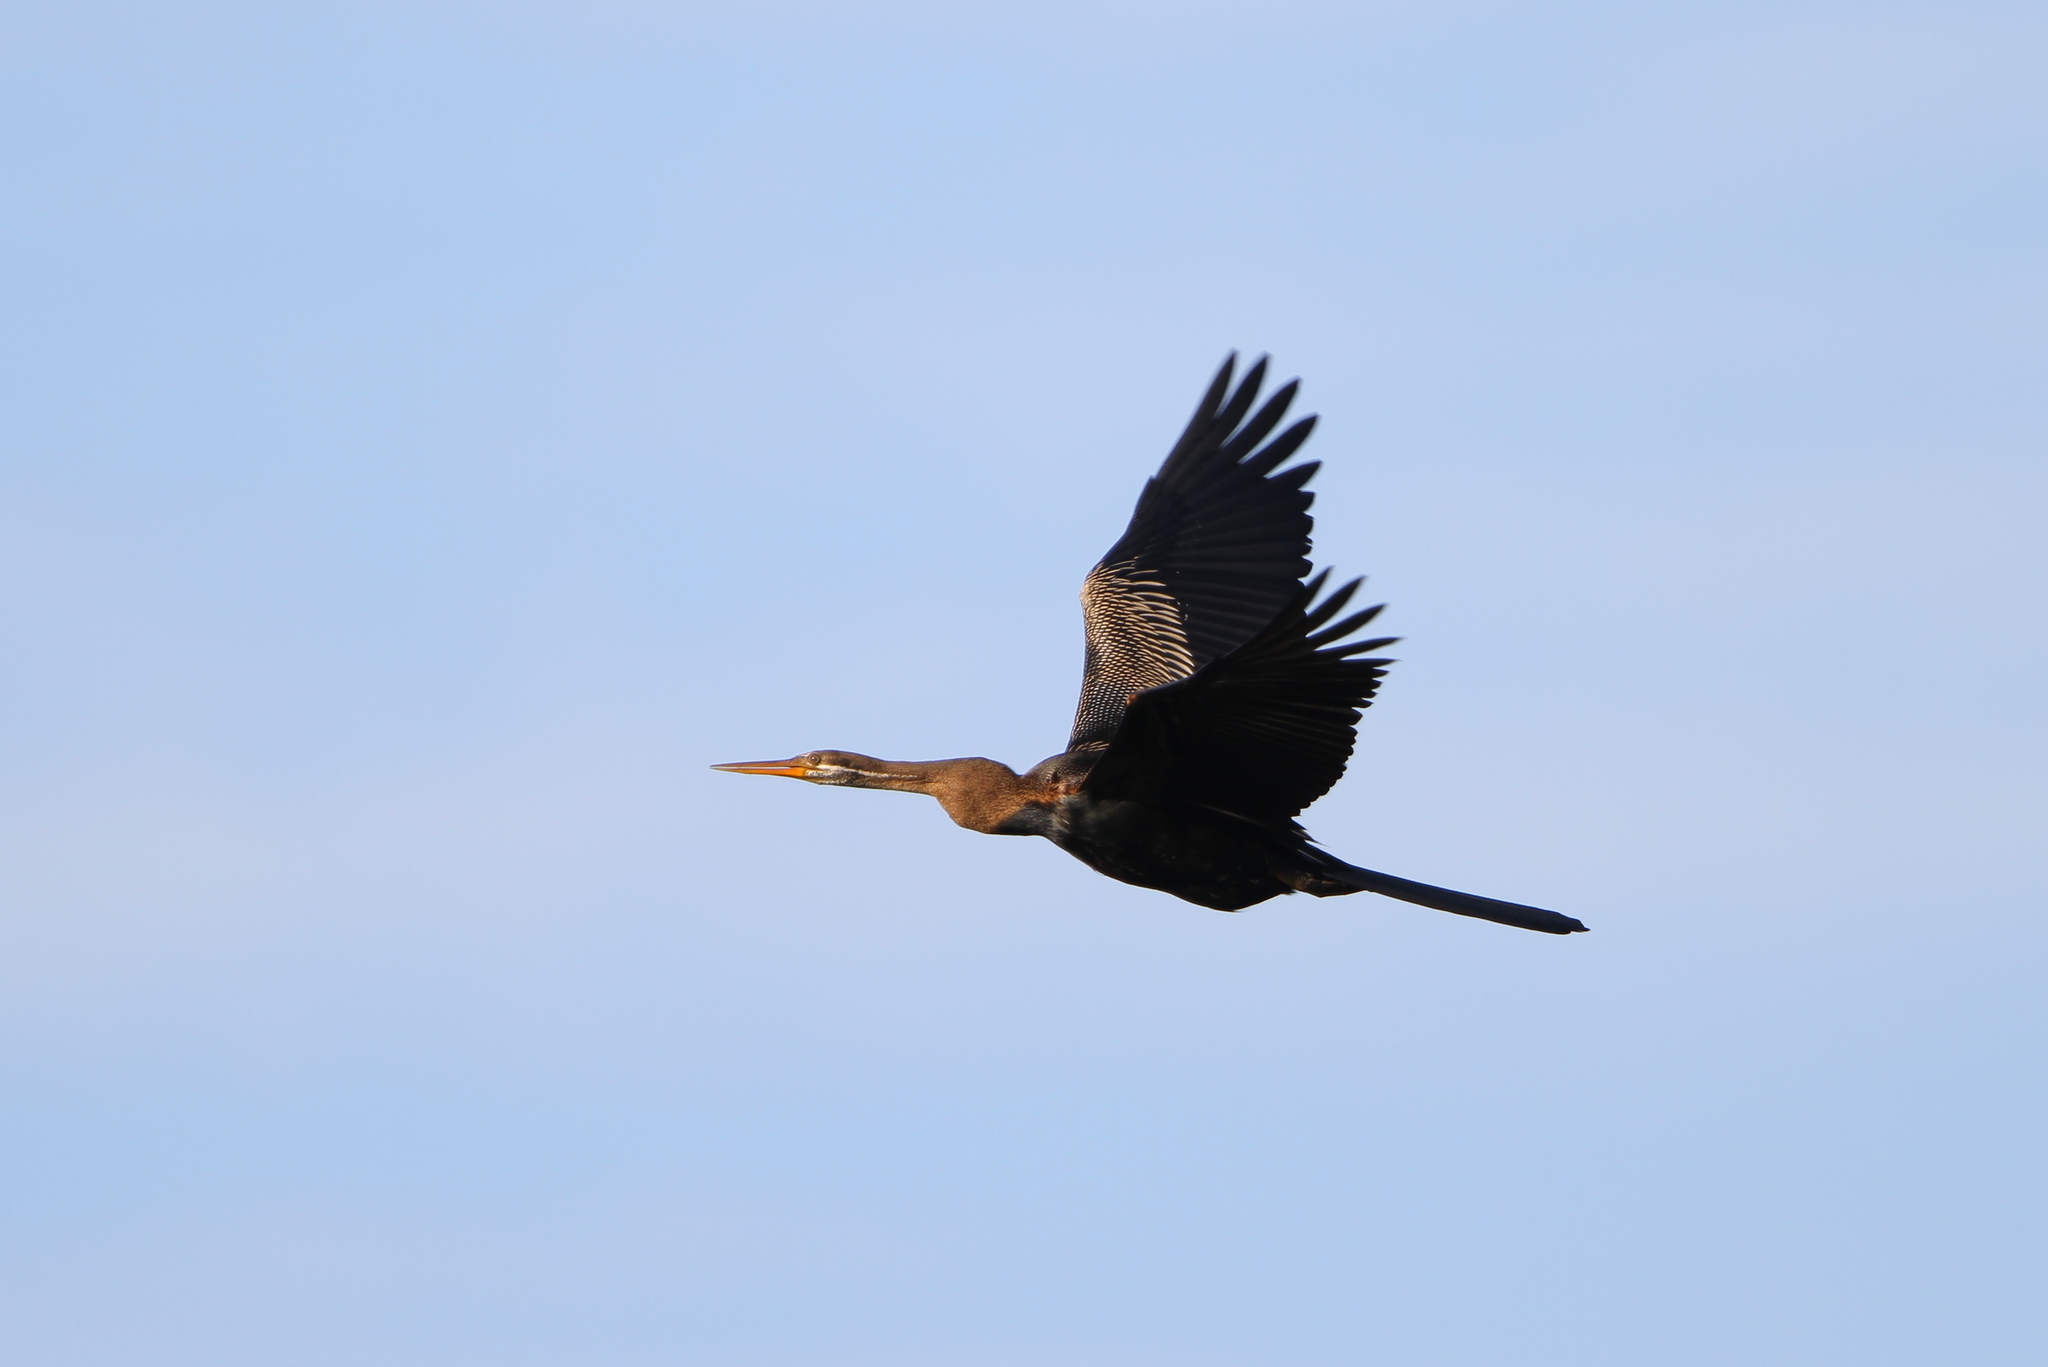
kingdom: Animalia
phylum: Chordata
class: Aves
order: Suliformes
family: Anhingidae
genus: Anhinga
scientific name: Anhinga melanogaster
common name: Oriental darter
